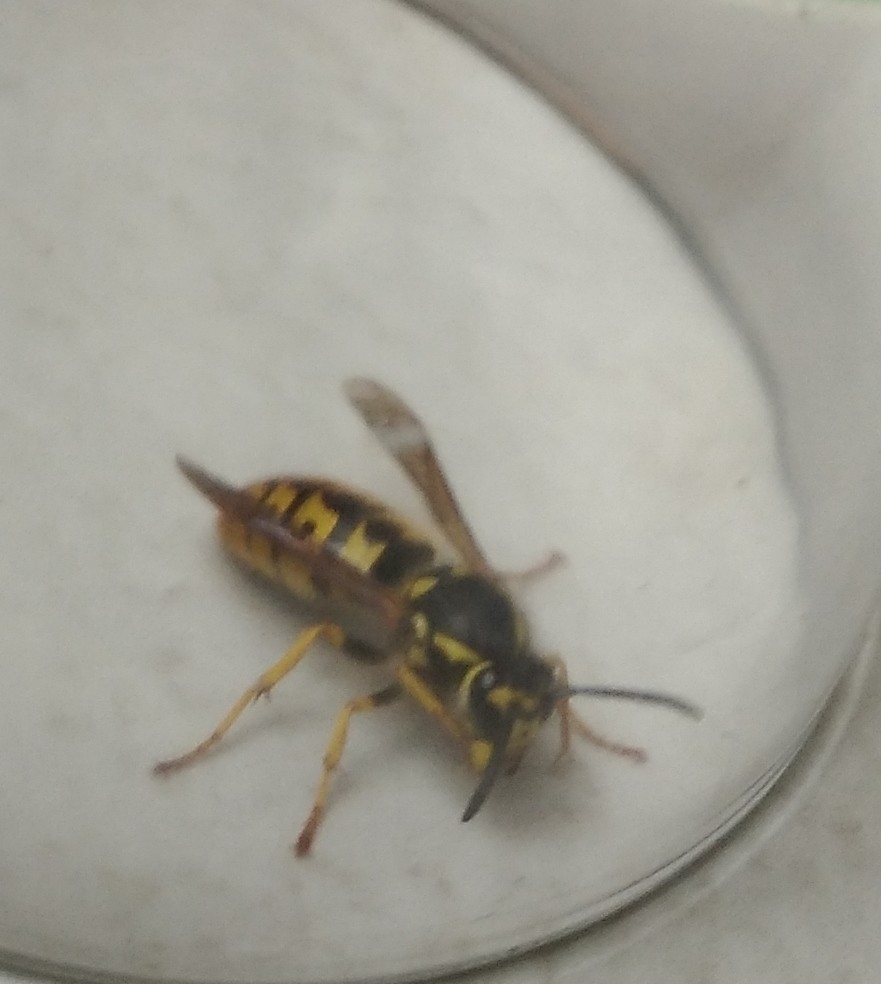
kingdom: Animalia
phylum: Arthropoda
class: Insecta
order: Hymenoptera
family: Vespidae
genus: Vespula
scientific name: Vespula germanica
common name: German wasp
